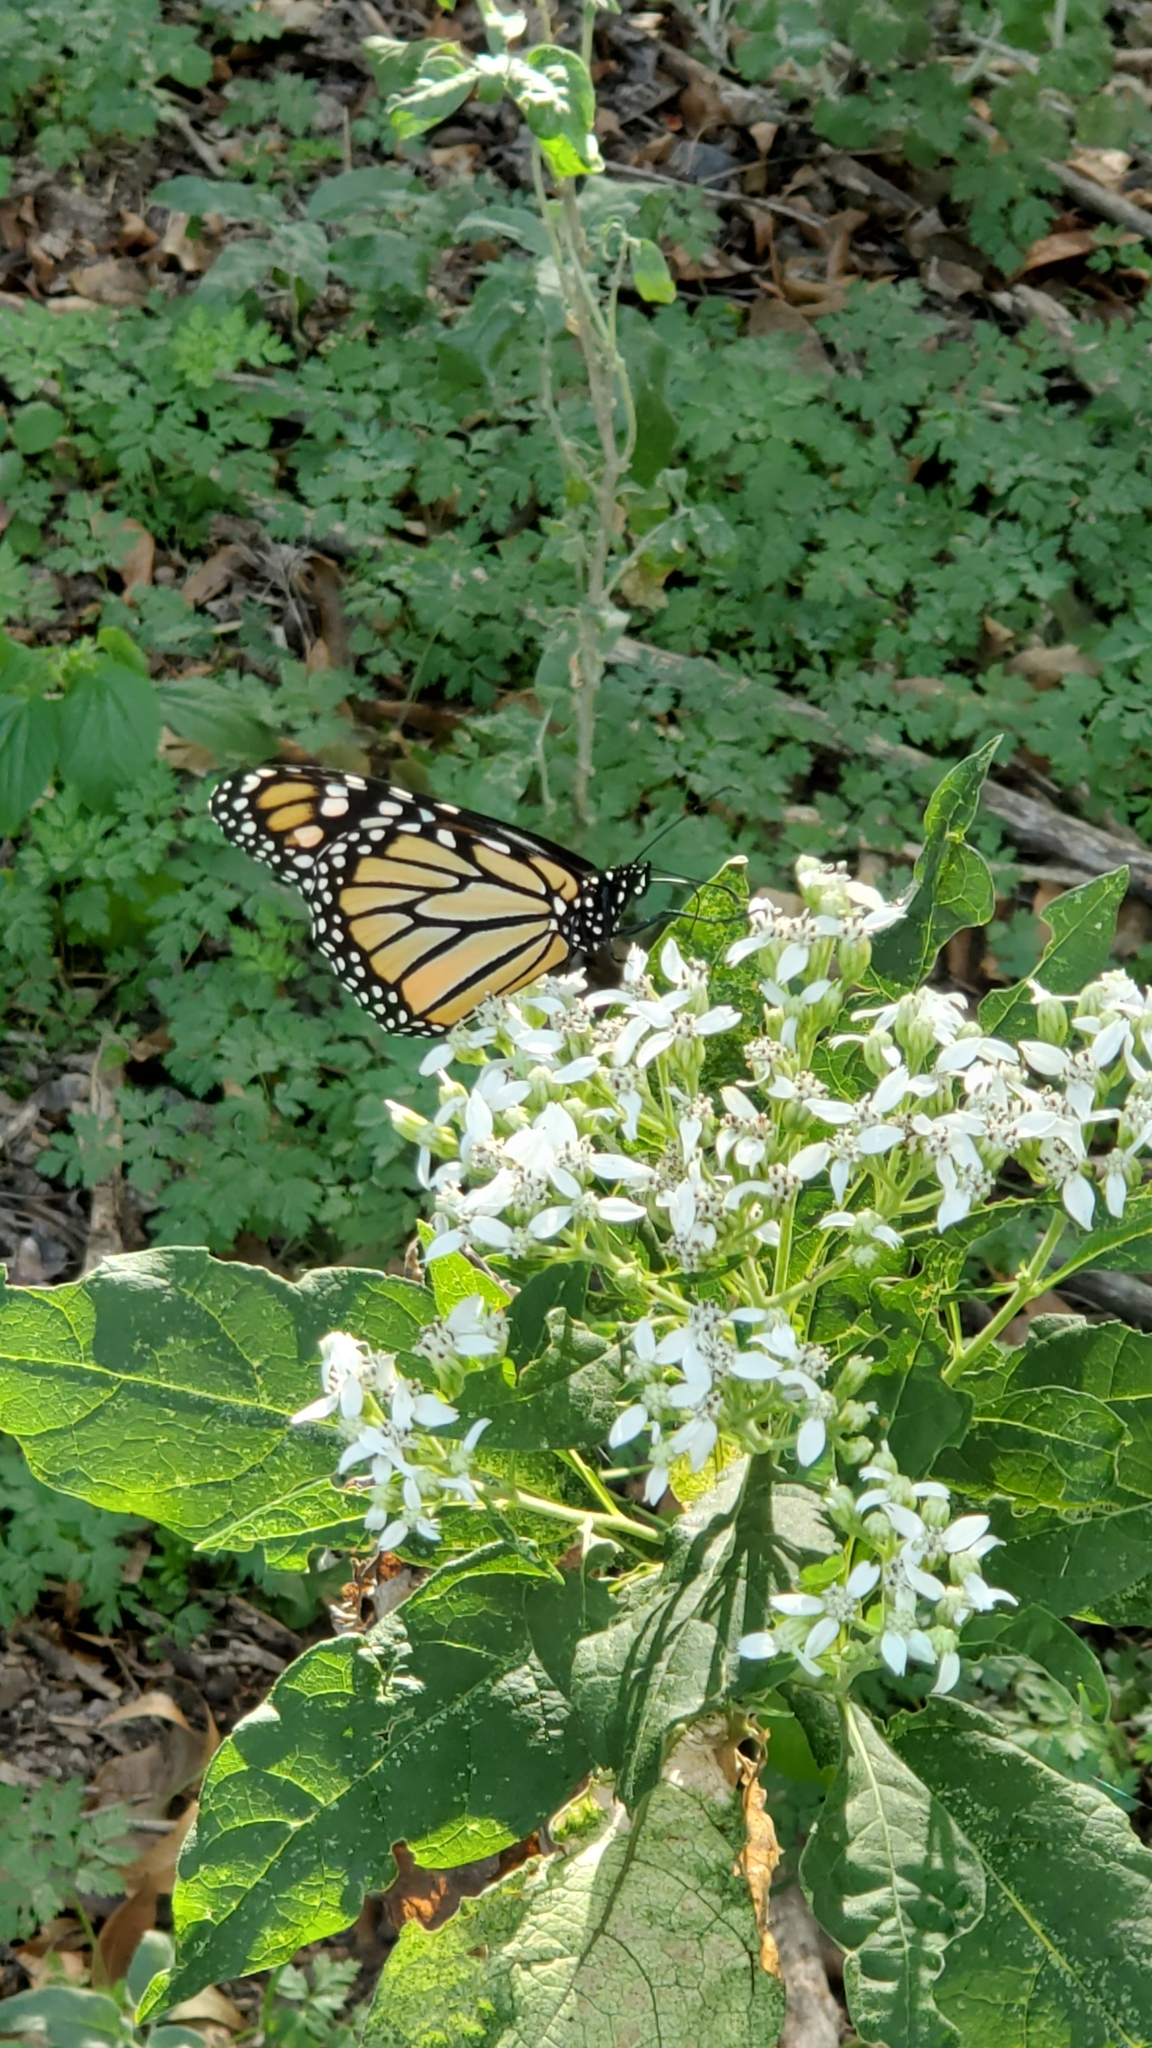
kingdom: Animalia
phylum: Arthropoda
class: Insecta
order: Lepidoptera
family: Nymphalidae
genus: Danaus
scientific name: Danaus plexippus
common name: Monarch
